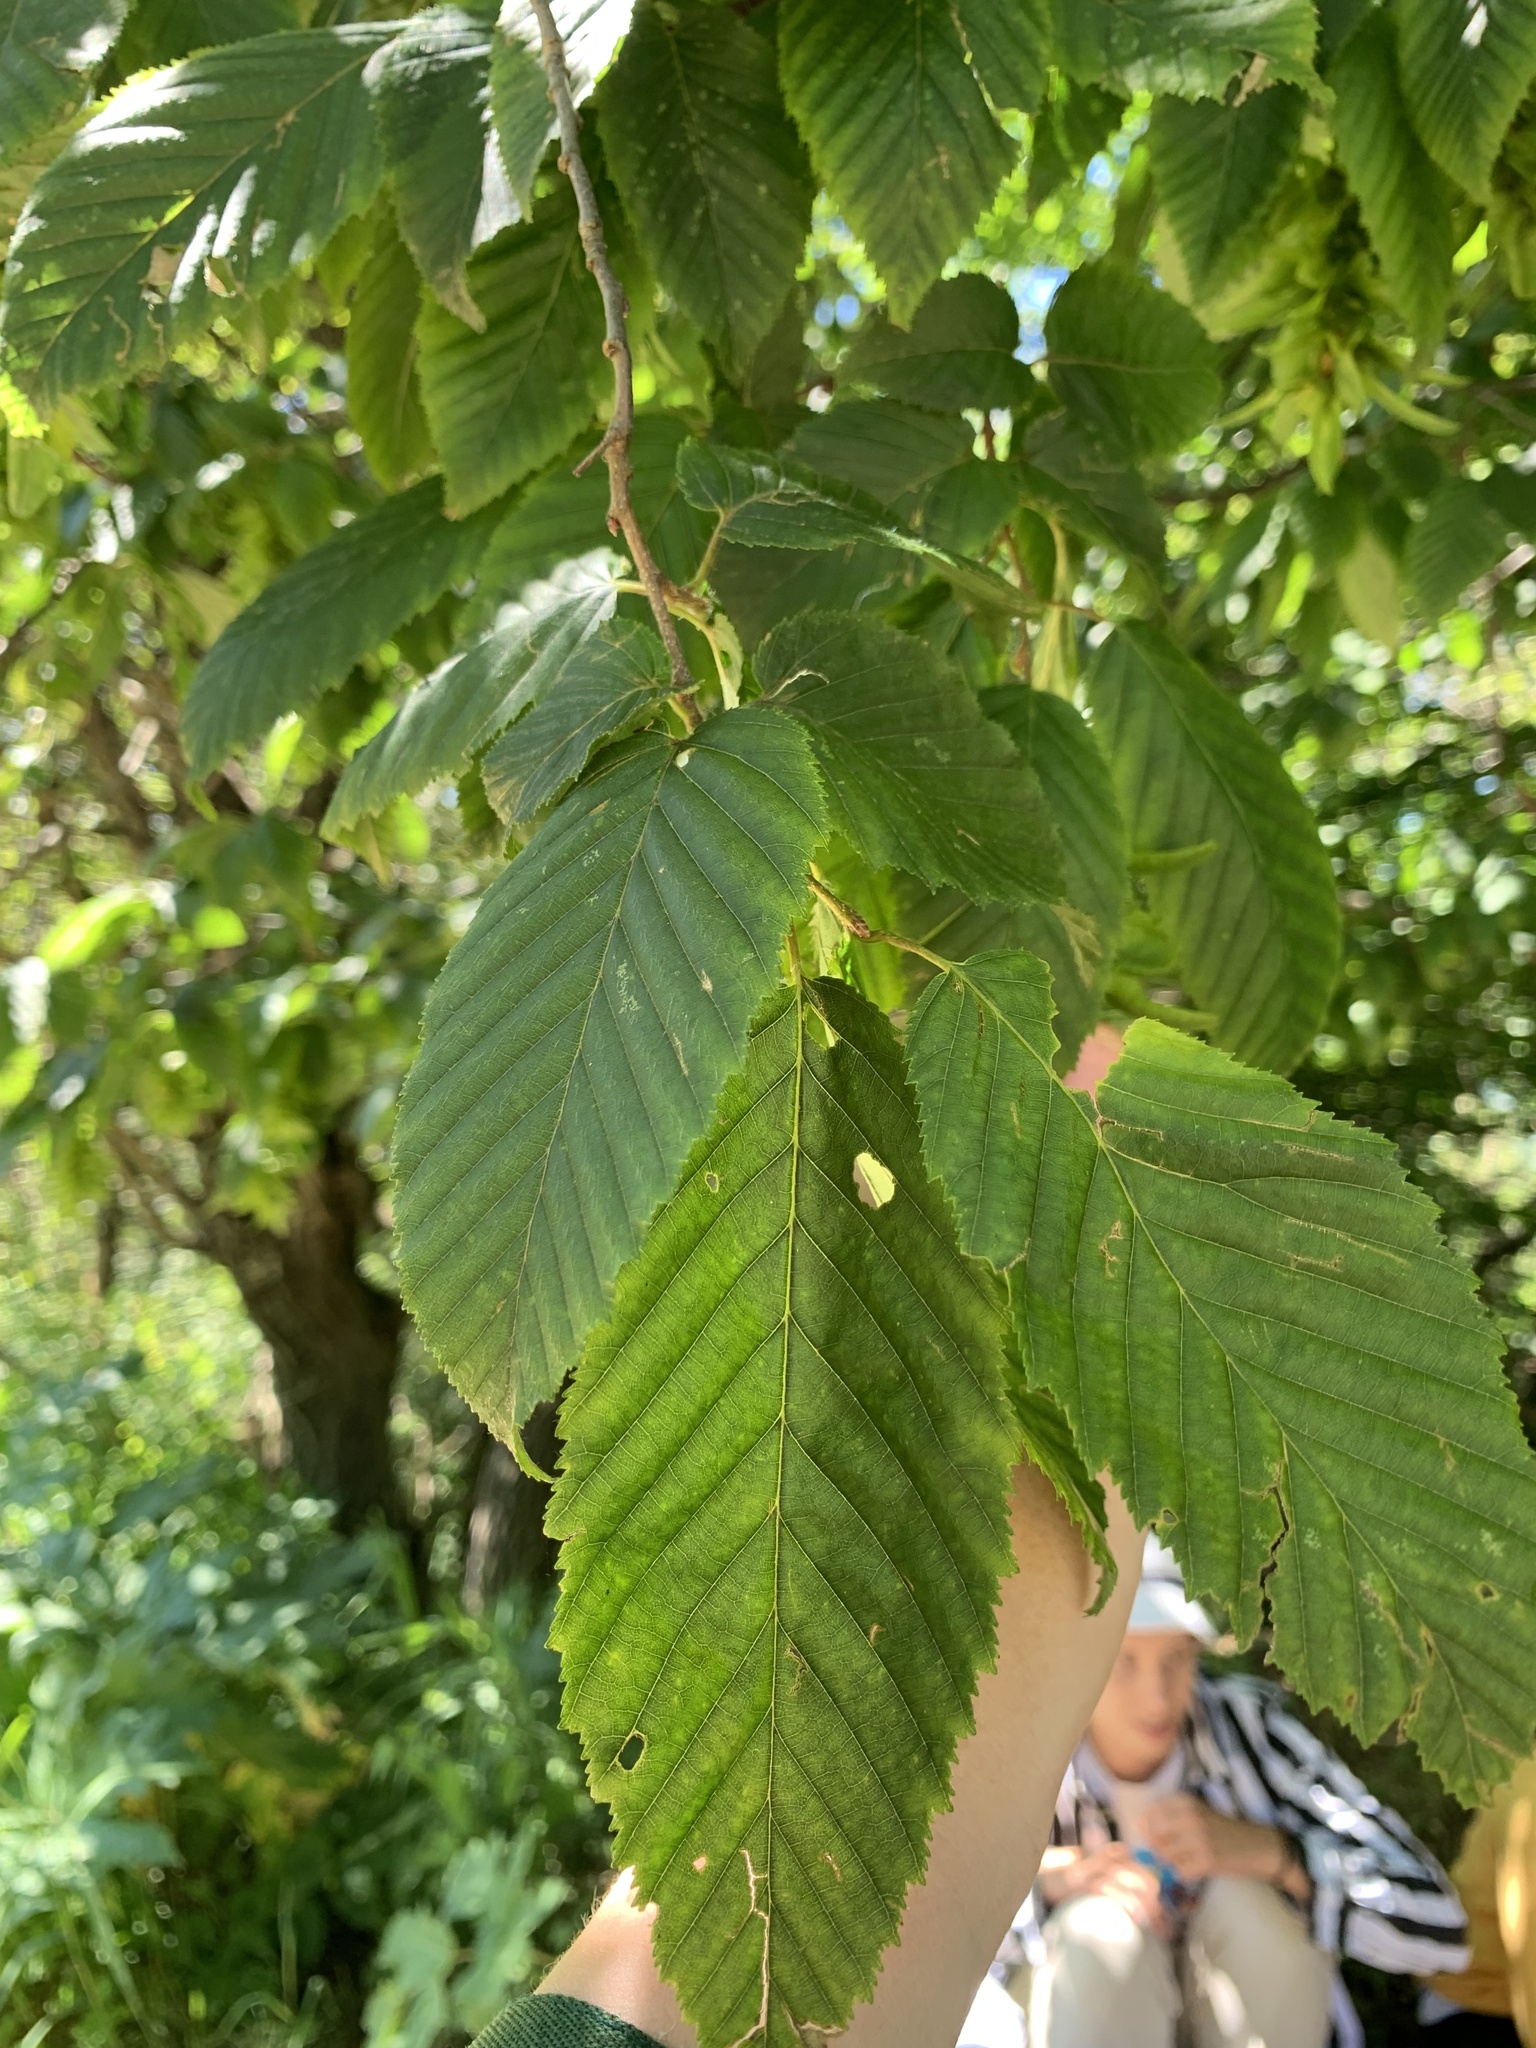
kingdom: Plantae
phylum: Tracheophyta
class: Magnoliopsida
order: Fagales
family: Betulaceae
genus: Carpinus
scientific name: Carpinus betulus
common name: Hornbeam
